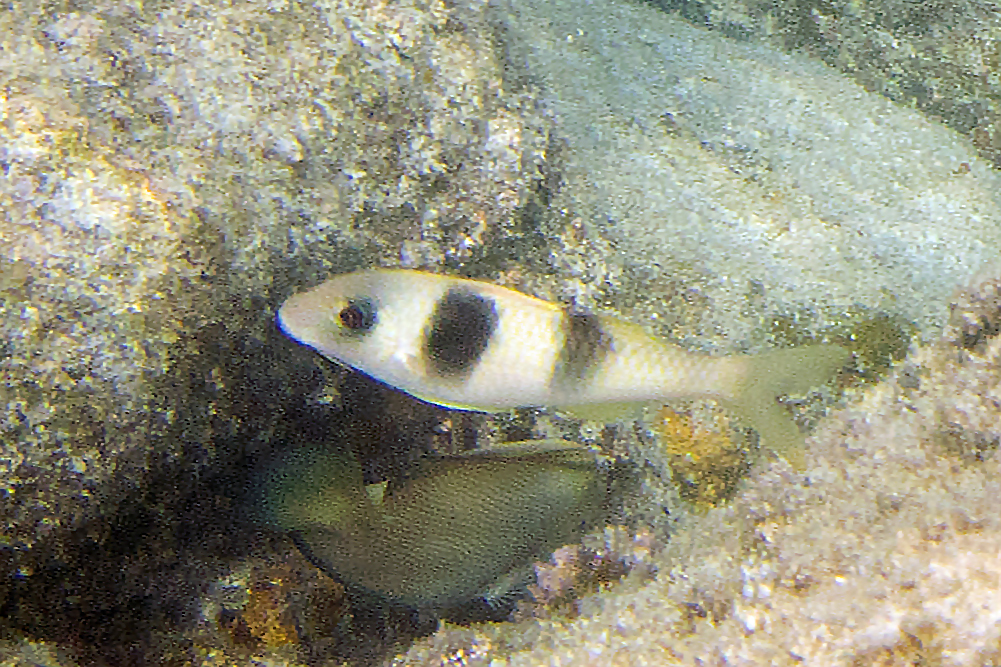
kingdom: Animalia
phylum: Chordata
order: Perciformes
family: Mullidae
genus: Parupeneus
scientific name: Parupeneus crassilabris
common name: Doublebar goatfish
